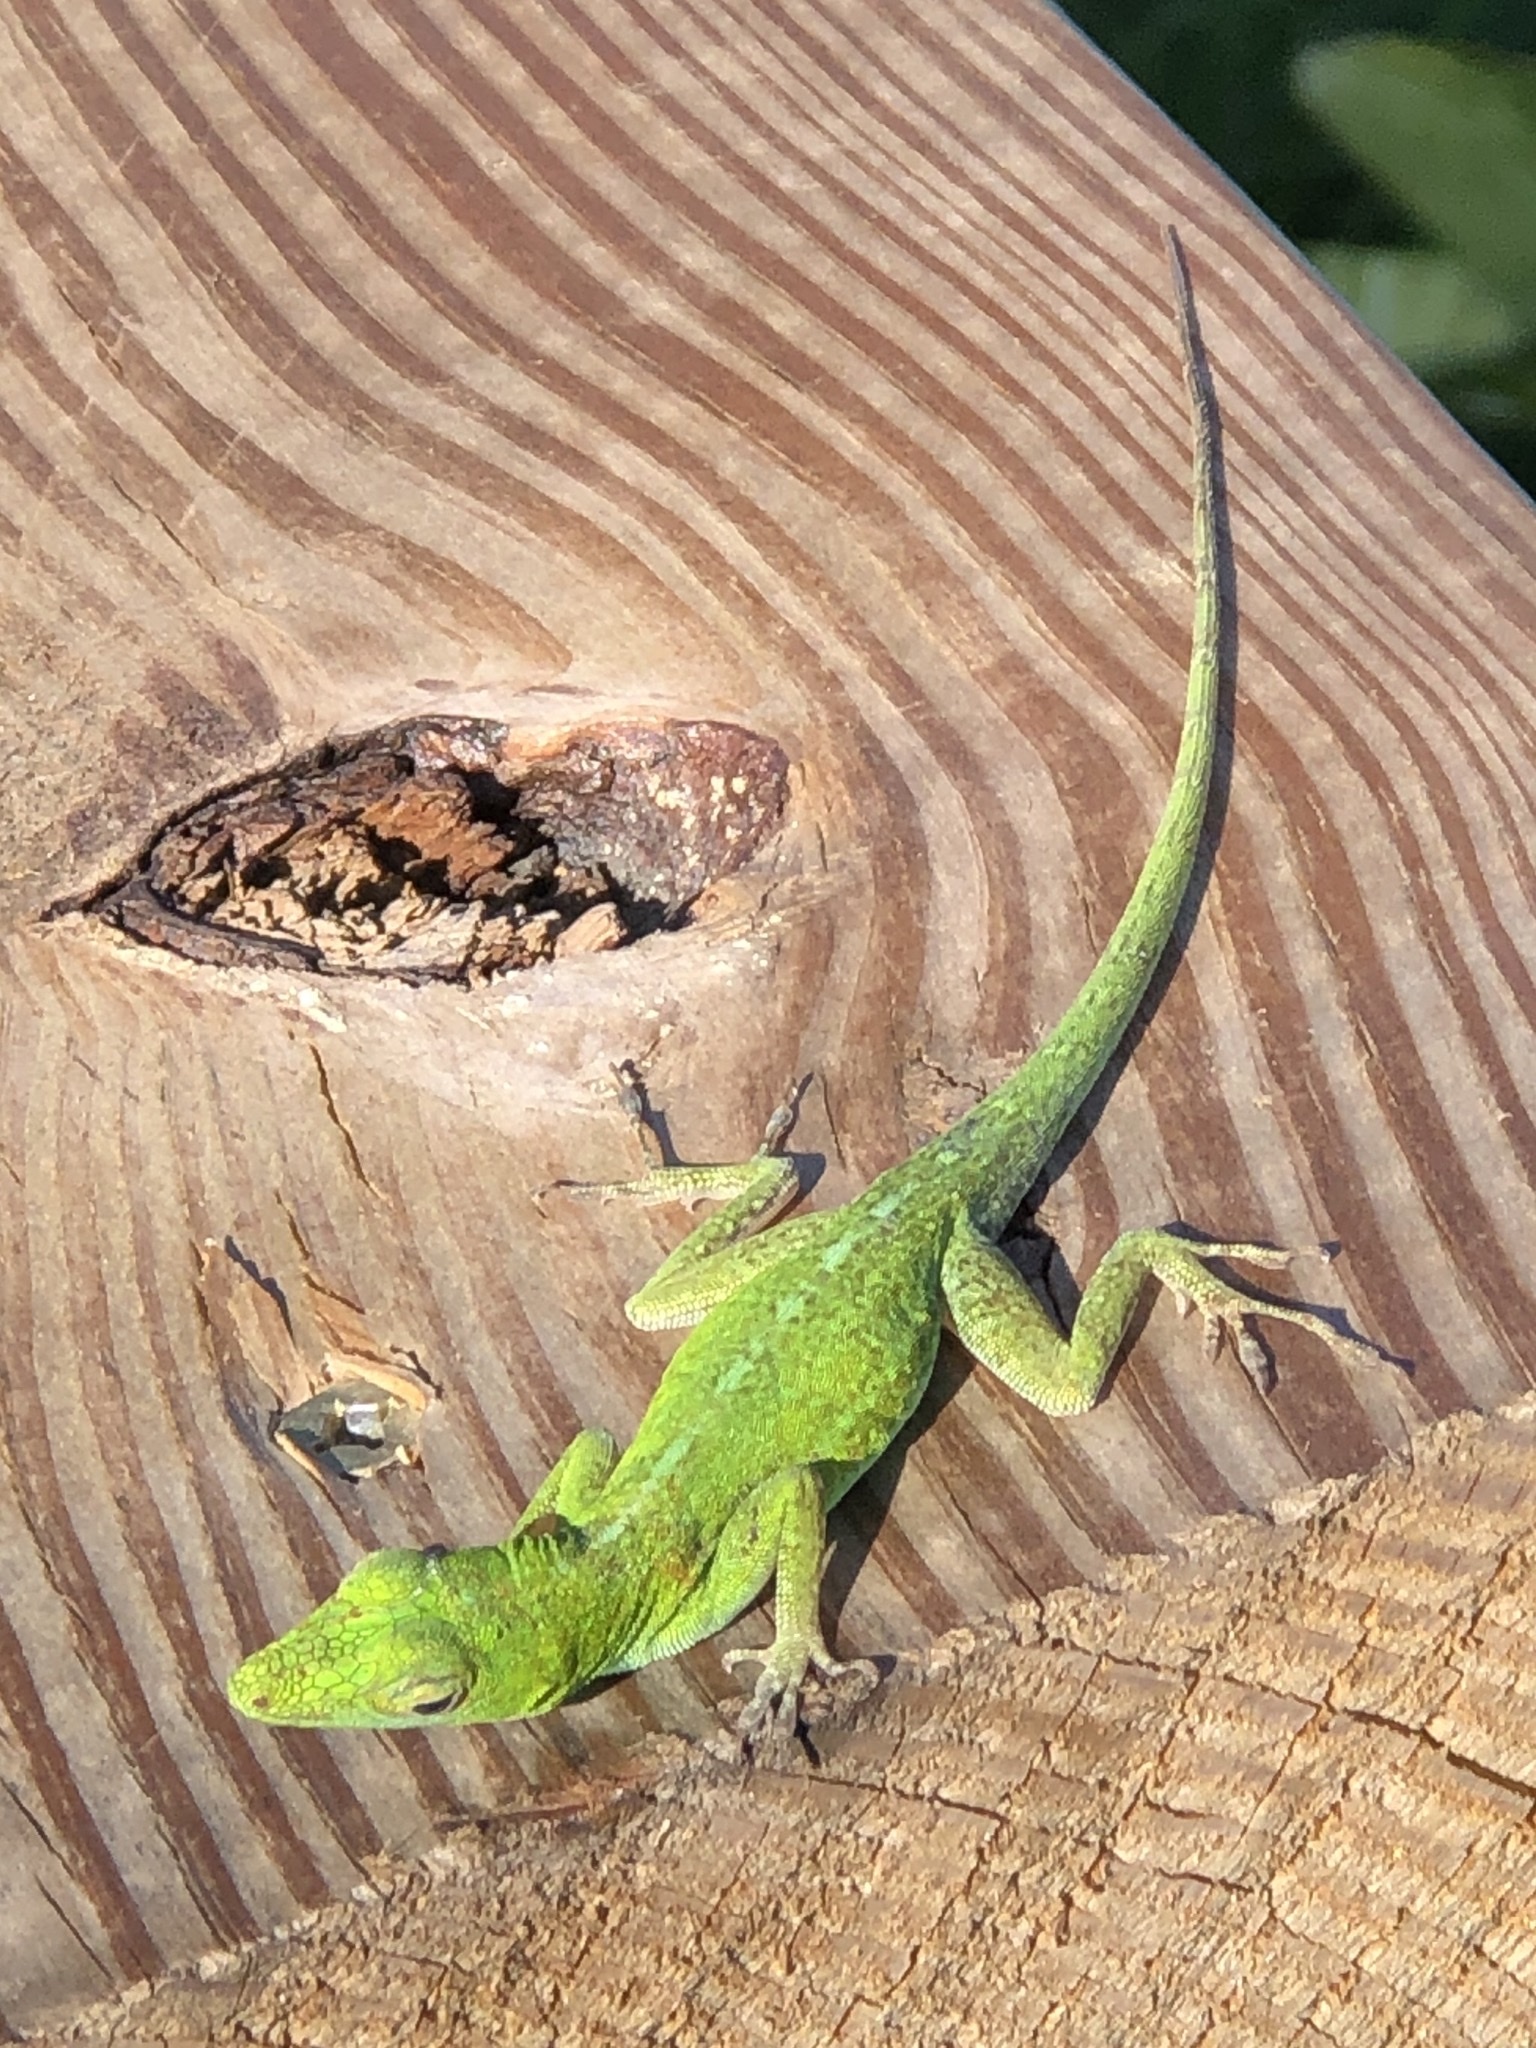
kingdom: Animalia
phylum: Chordata
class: Squamata
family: Dactyloidae
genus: Anolis
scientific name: Anolis evermanni
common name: Emerald anole
